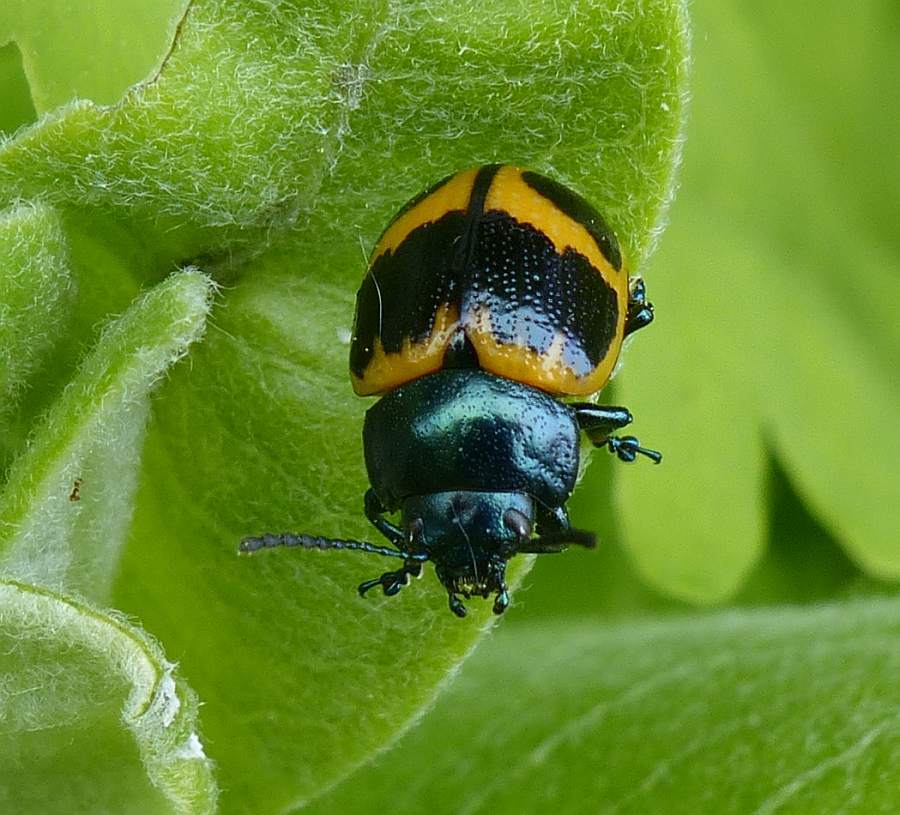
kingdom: Animalia
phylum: Arthropoda
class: Insecta
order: Coleoptera
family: Chrysomelidae
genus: Labidomera
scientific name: Labidomera clivicollis
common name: Swamp milkweed leaf beetle
